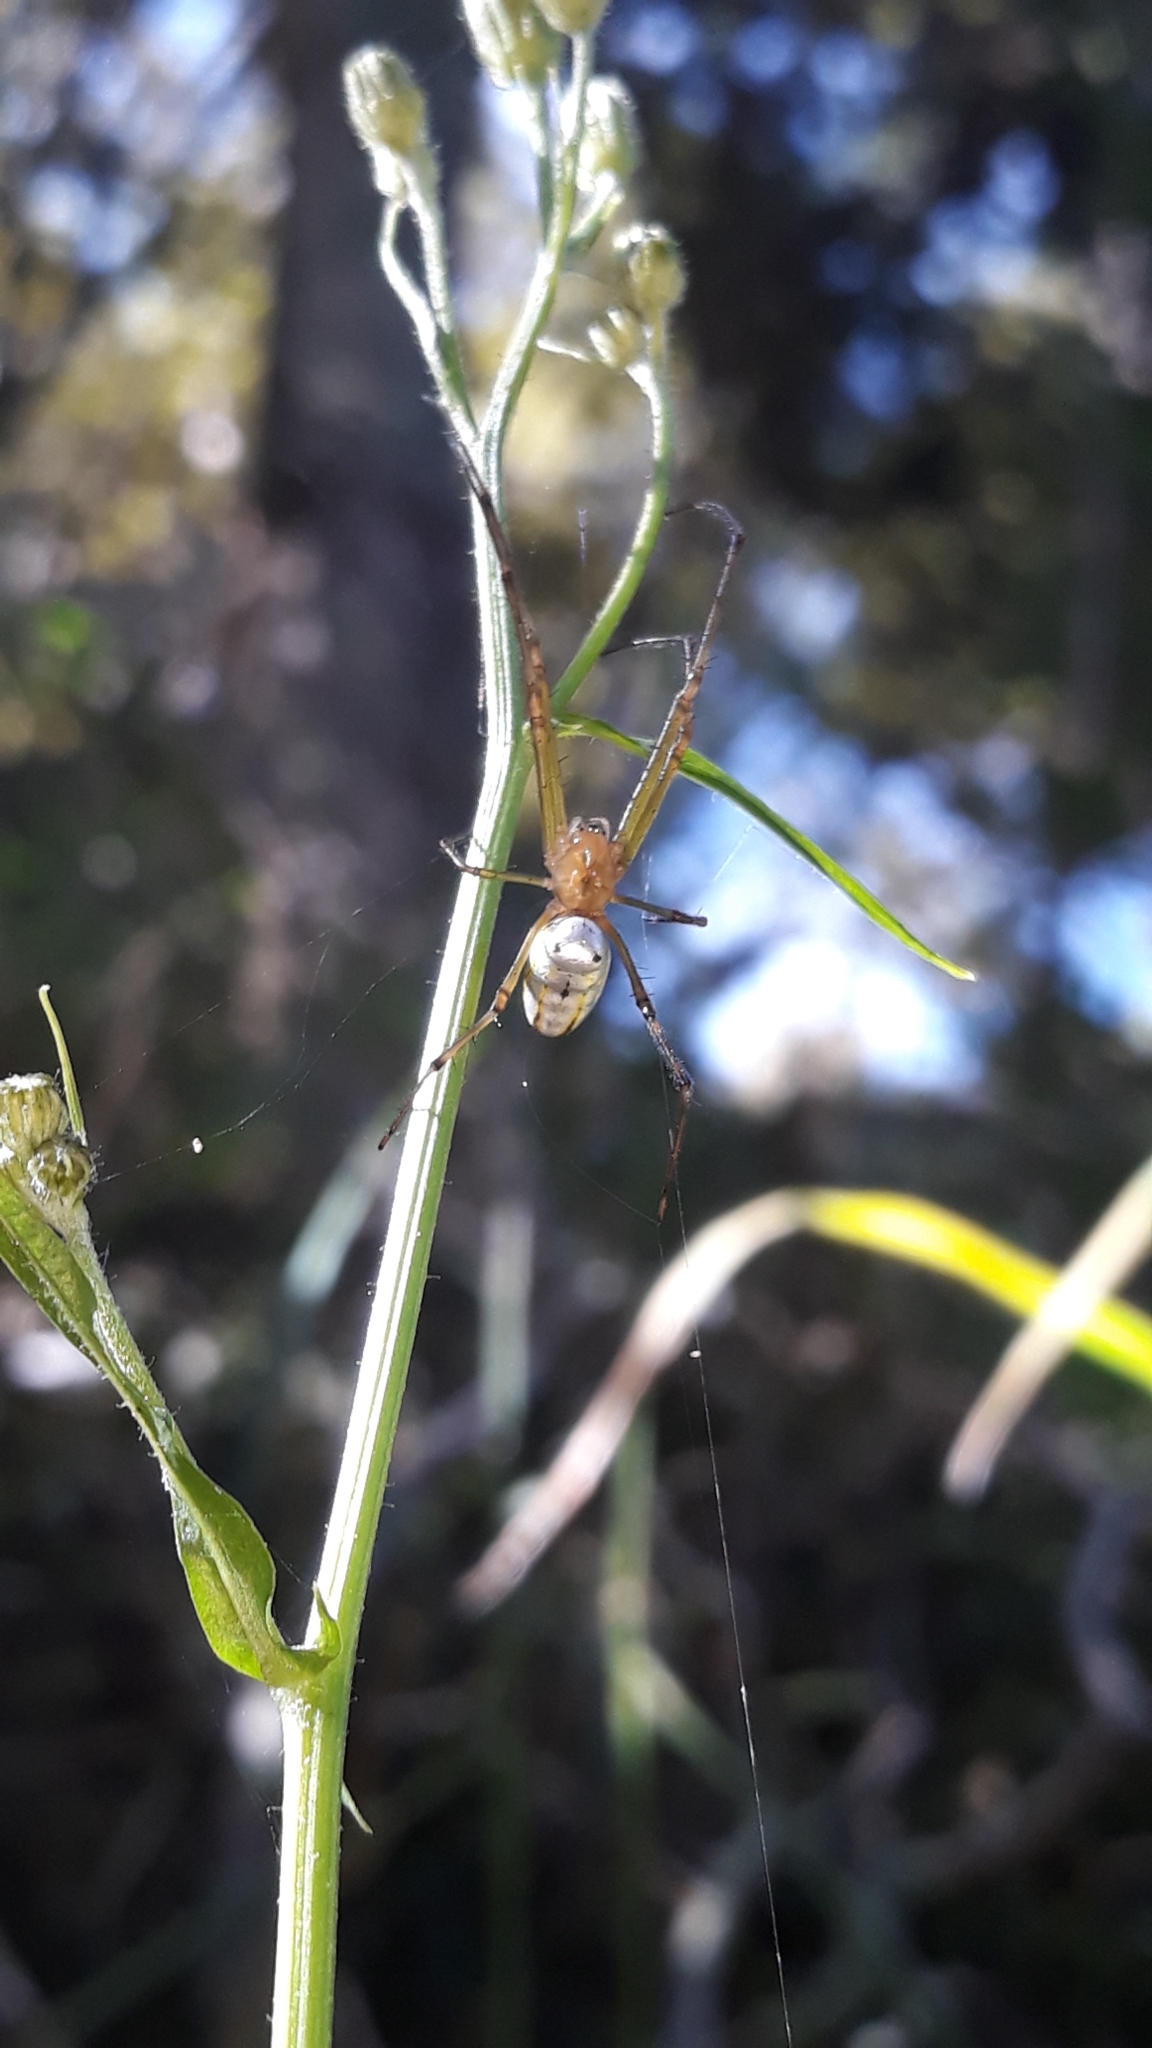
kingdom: Animalia
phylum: Arthropoda
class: Arachnida
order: Araneae
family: Tetragnathidae
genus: Leucauge
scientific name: Leucauge dromedaria
